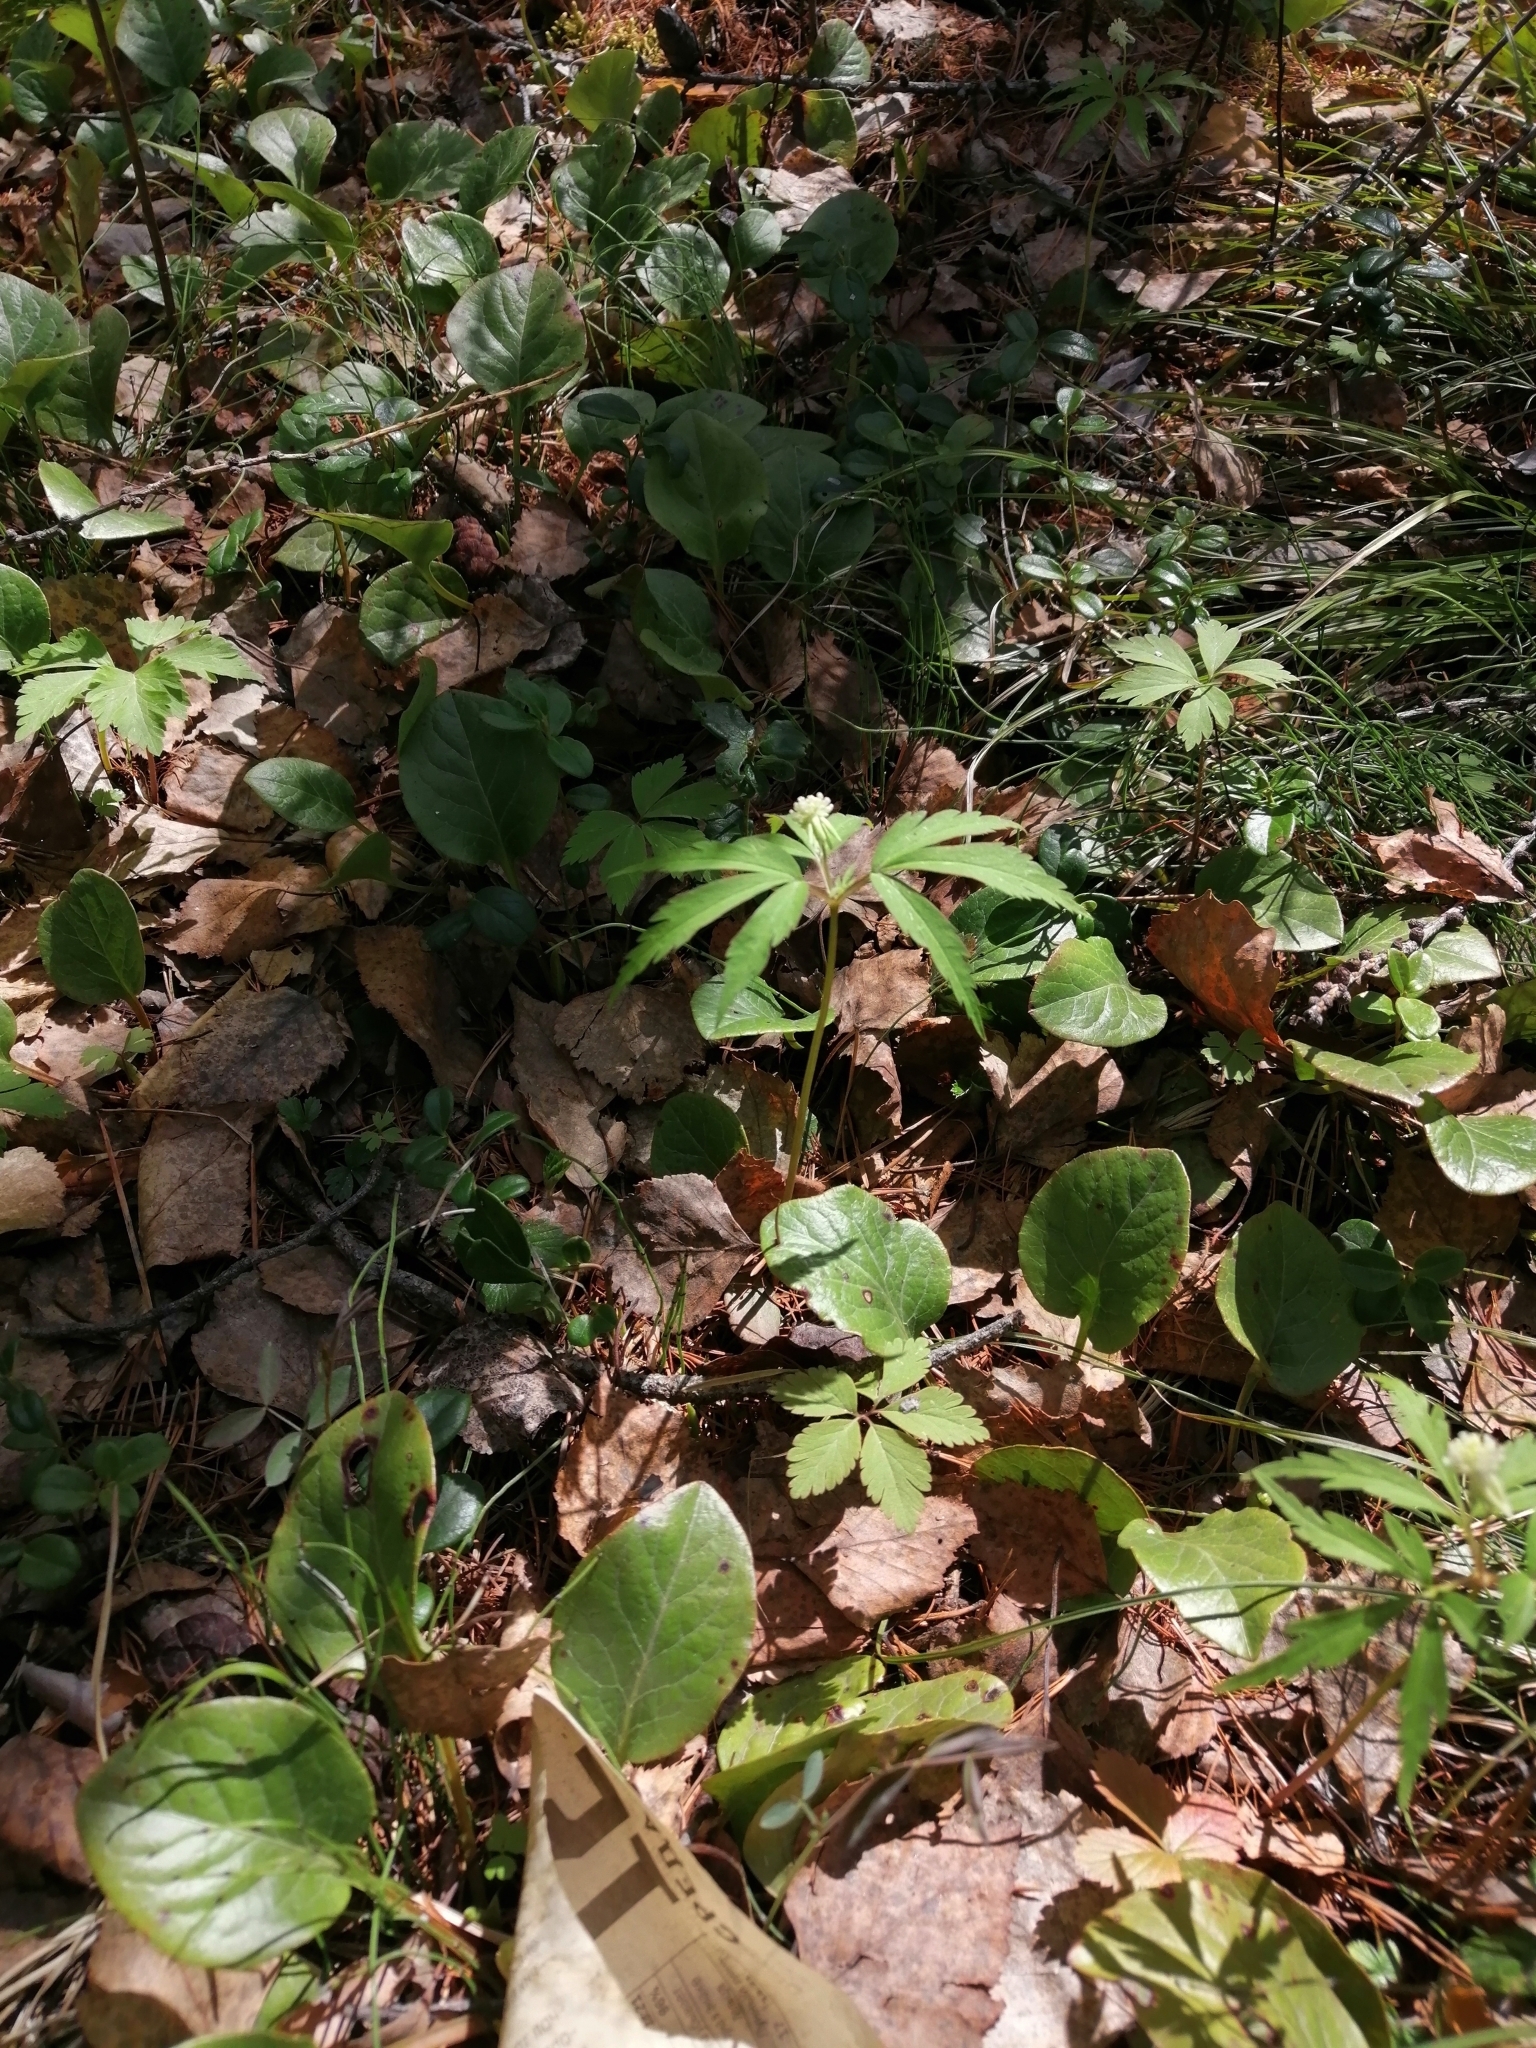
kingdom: Plantae
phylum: Tracheophyta
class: Magnoliopsida
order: Ranunculales
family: Ranunculaceae
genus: Anemone
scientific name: Anemone reflexa
